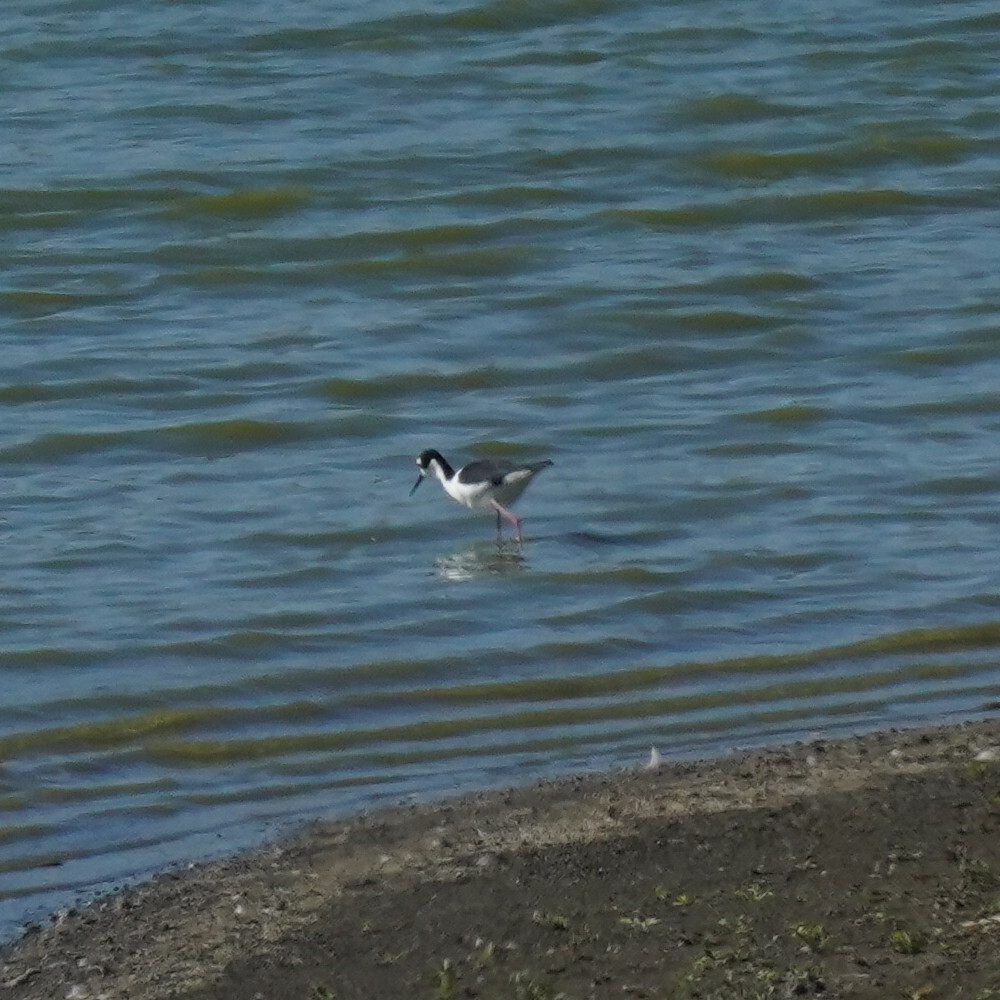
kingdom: Animalia
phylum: Chordata
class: Aves
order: Charadriiformes
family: Recurvirostridae
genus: Himantopus
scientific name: Himantopus mexicanus
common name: Black-necked stilt
